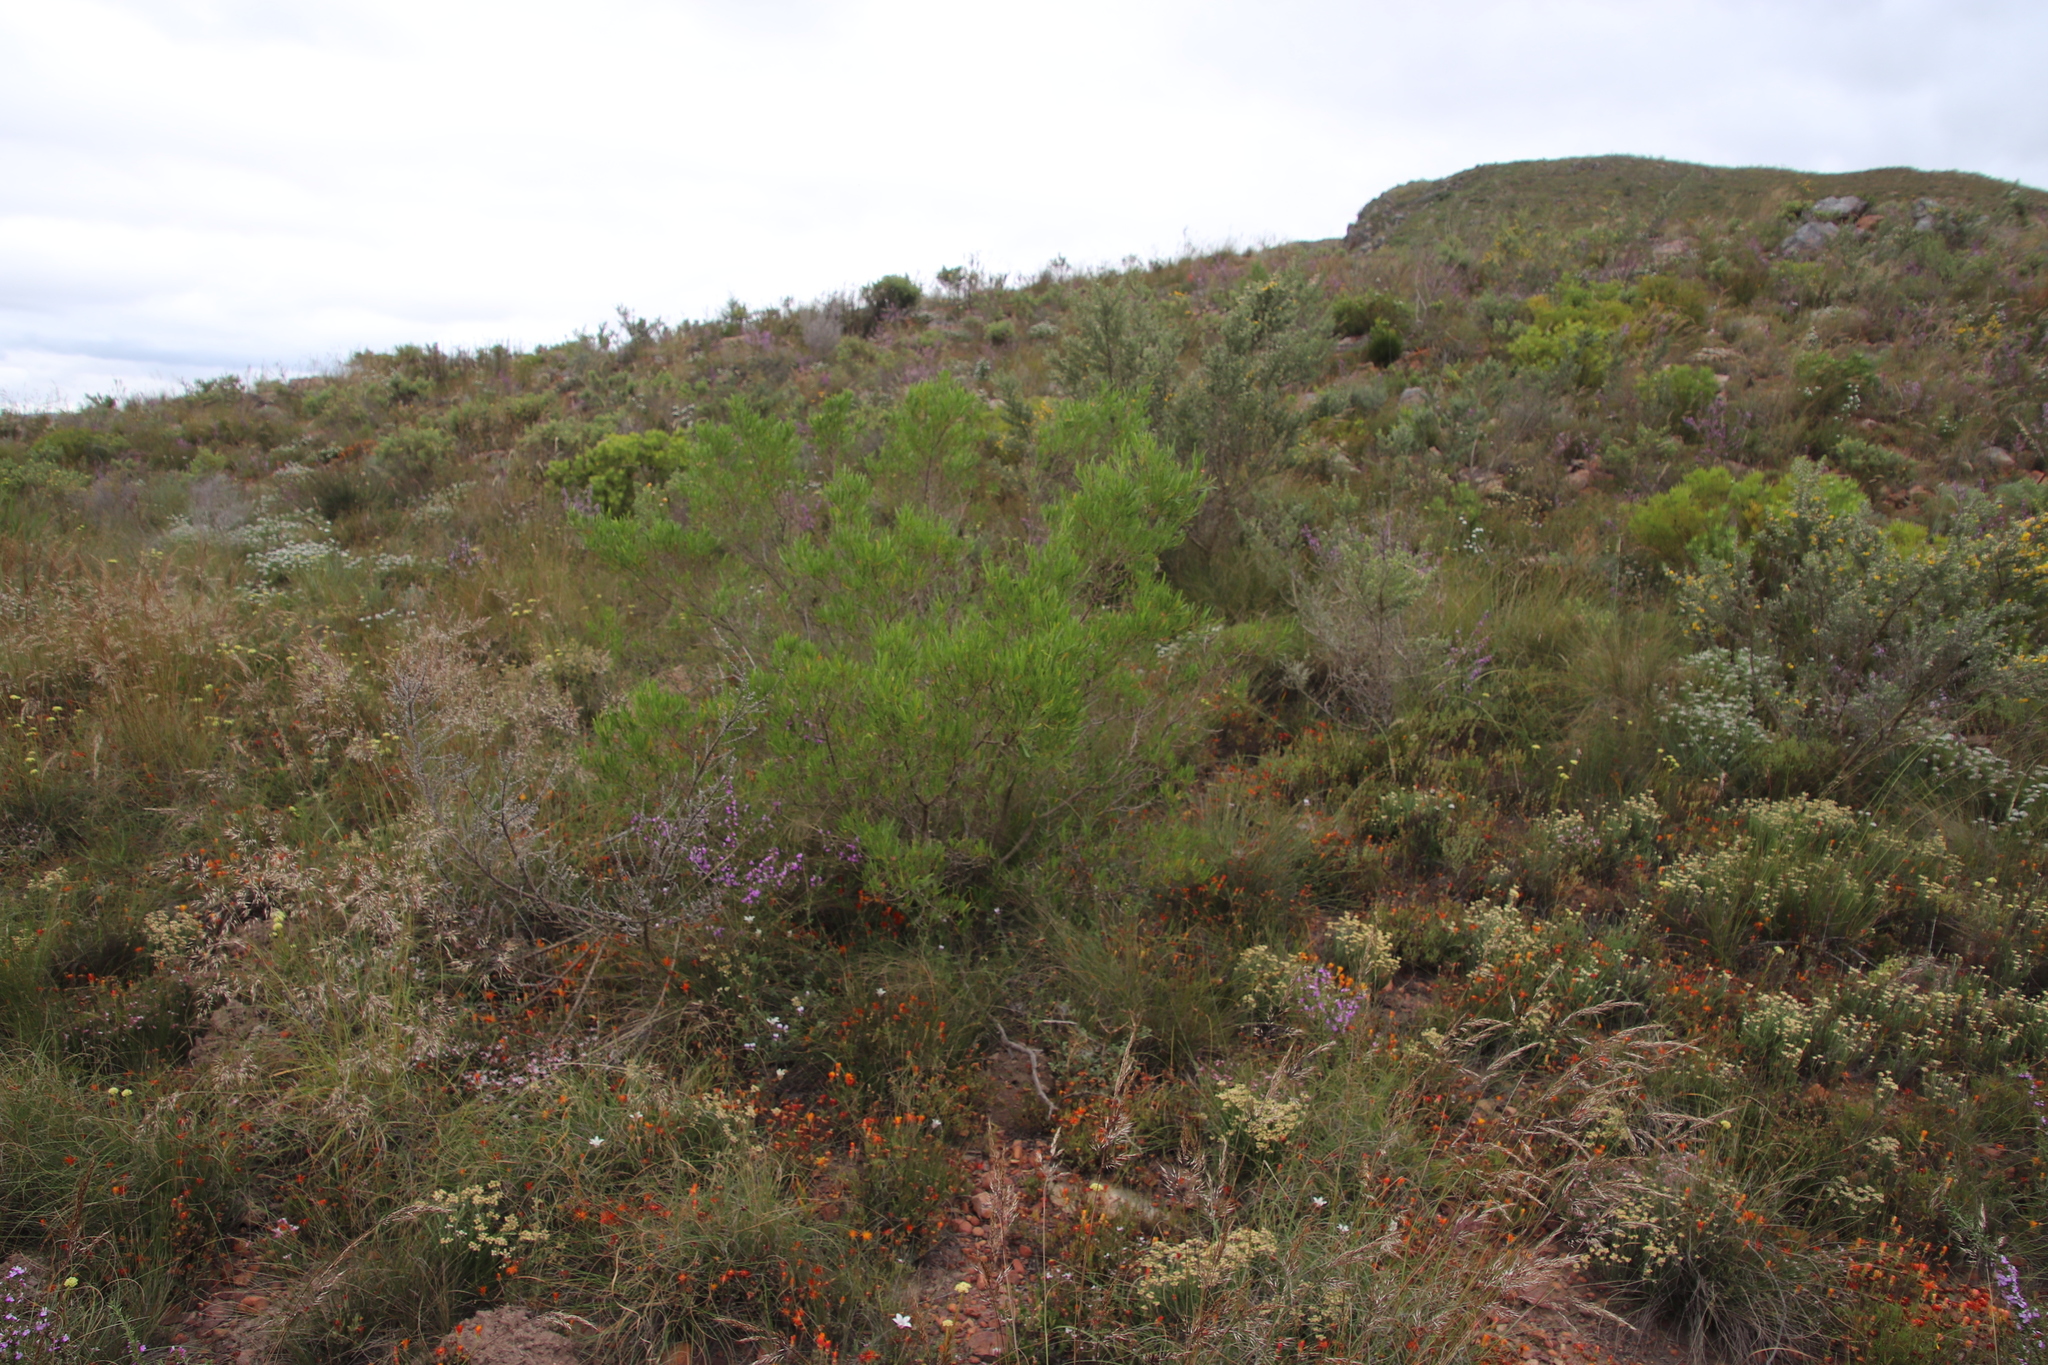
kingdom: Plantae
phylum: Tracheophyta
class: Magnoliopsida
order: Sapindales
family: Sapindaceae
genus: Dodonaea
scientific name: Dodonaea viscosa
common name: Hopbush
